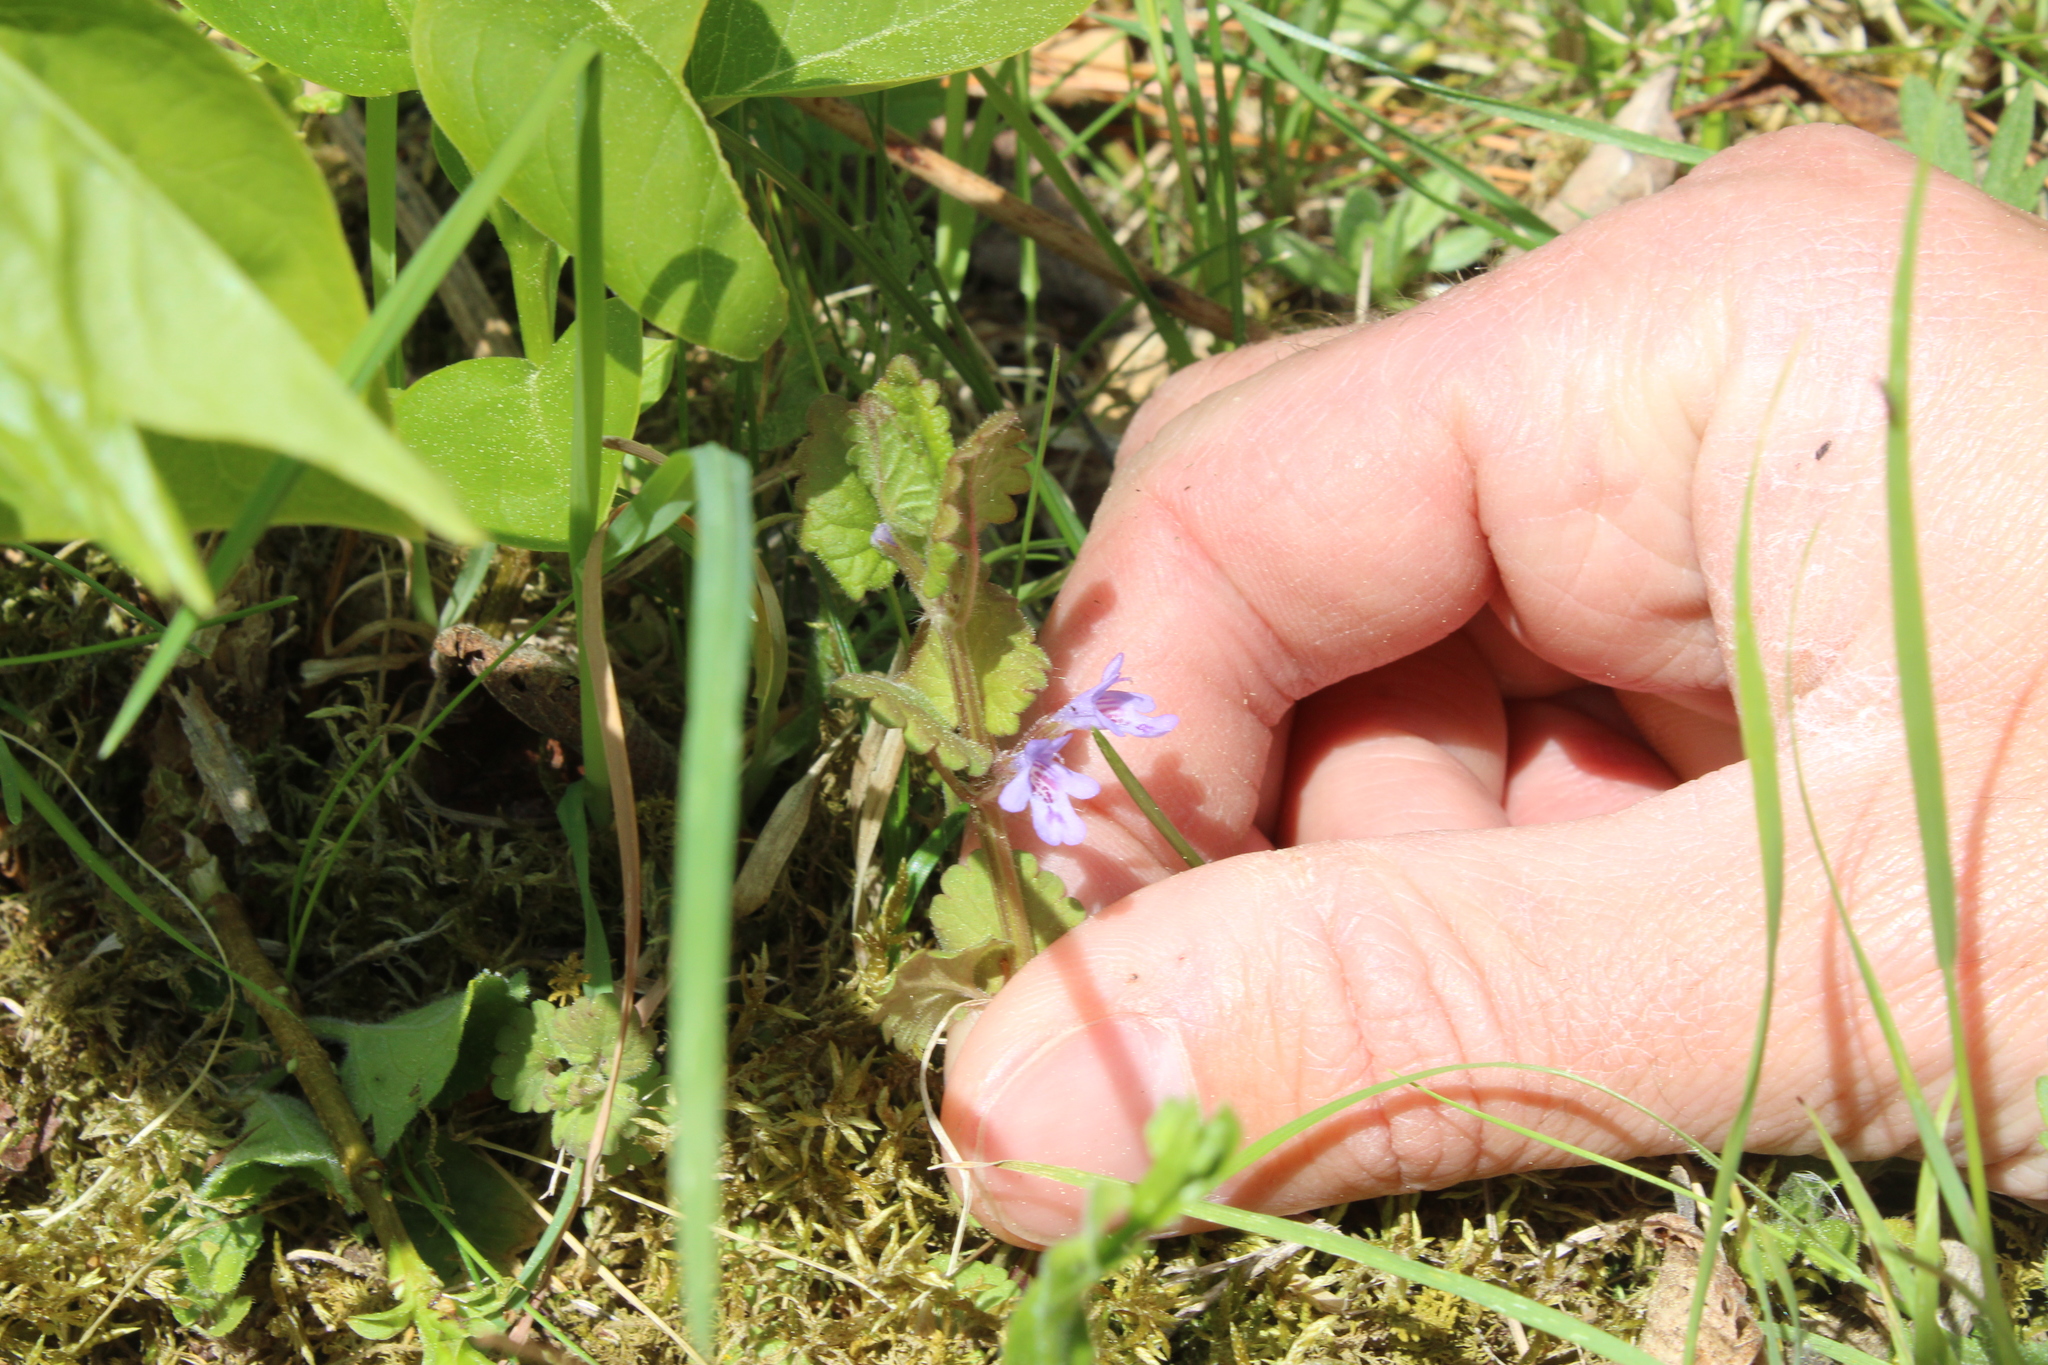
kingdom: Plantae
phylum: Tracheophyta
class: Magnoliopsida
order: Lamiales
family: Lamiaceae
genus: Glechoma
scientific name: Glechoma hederacea
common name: Ground ivy
